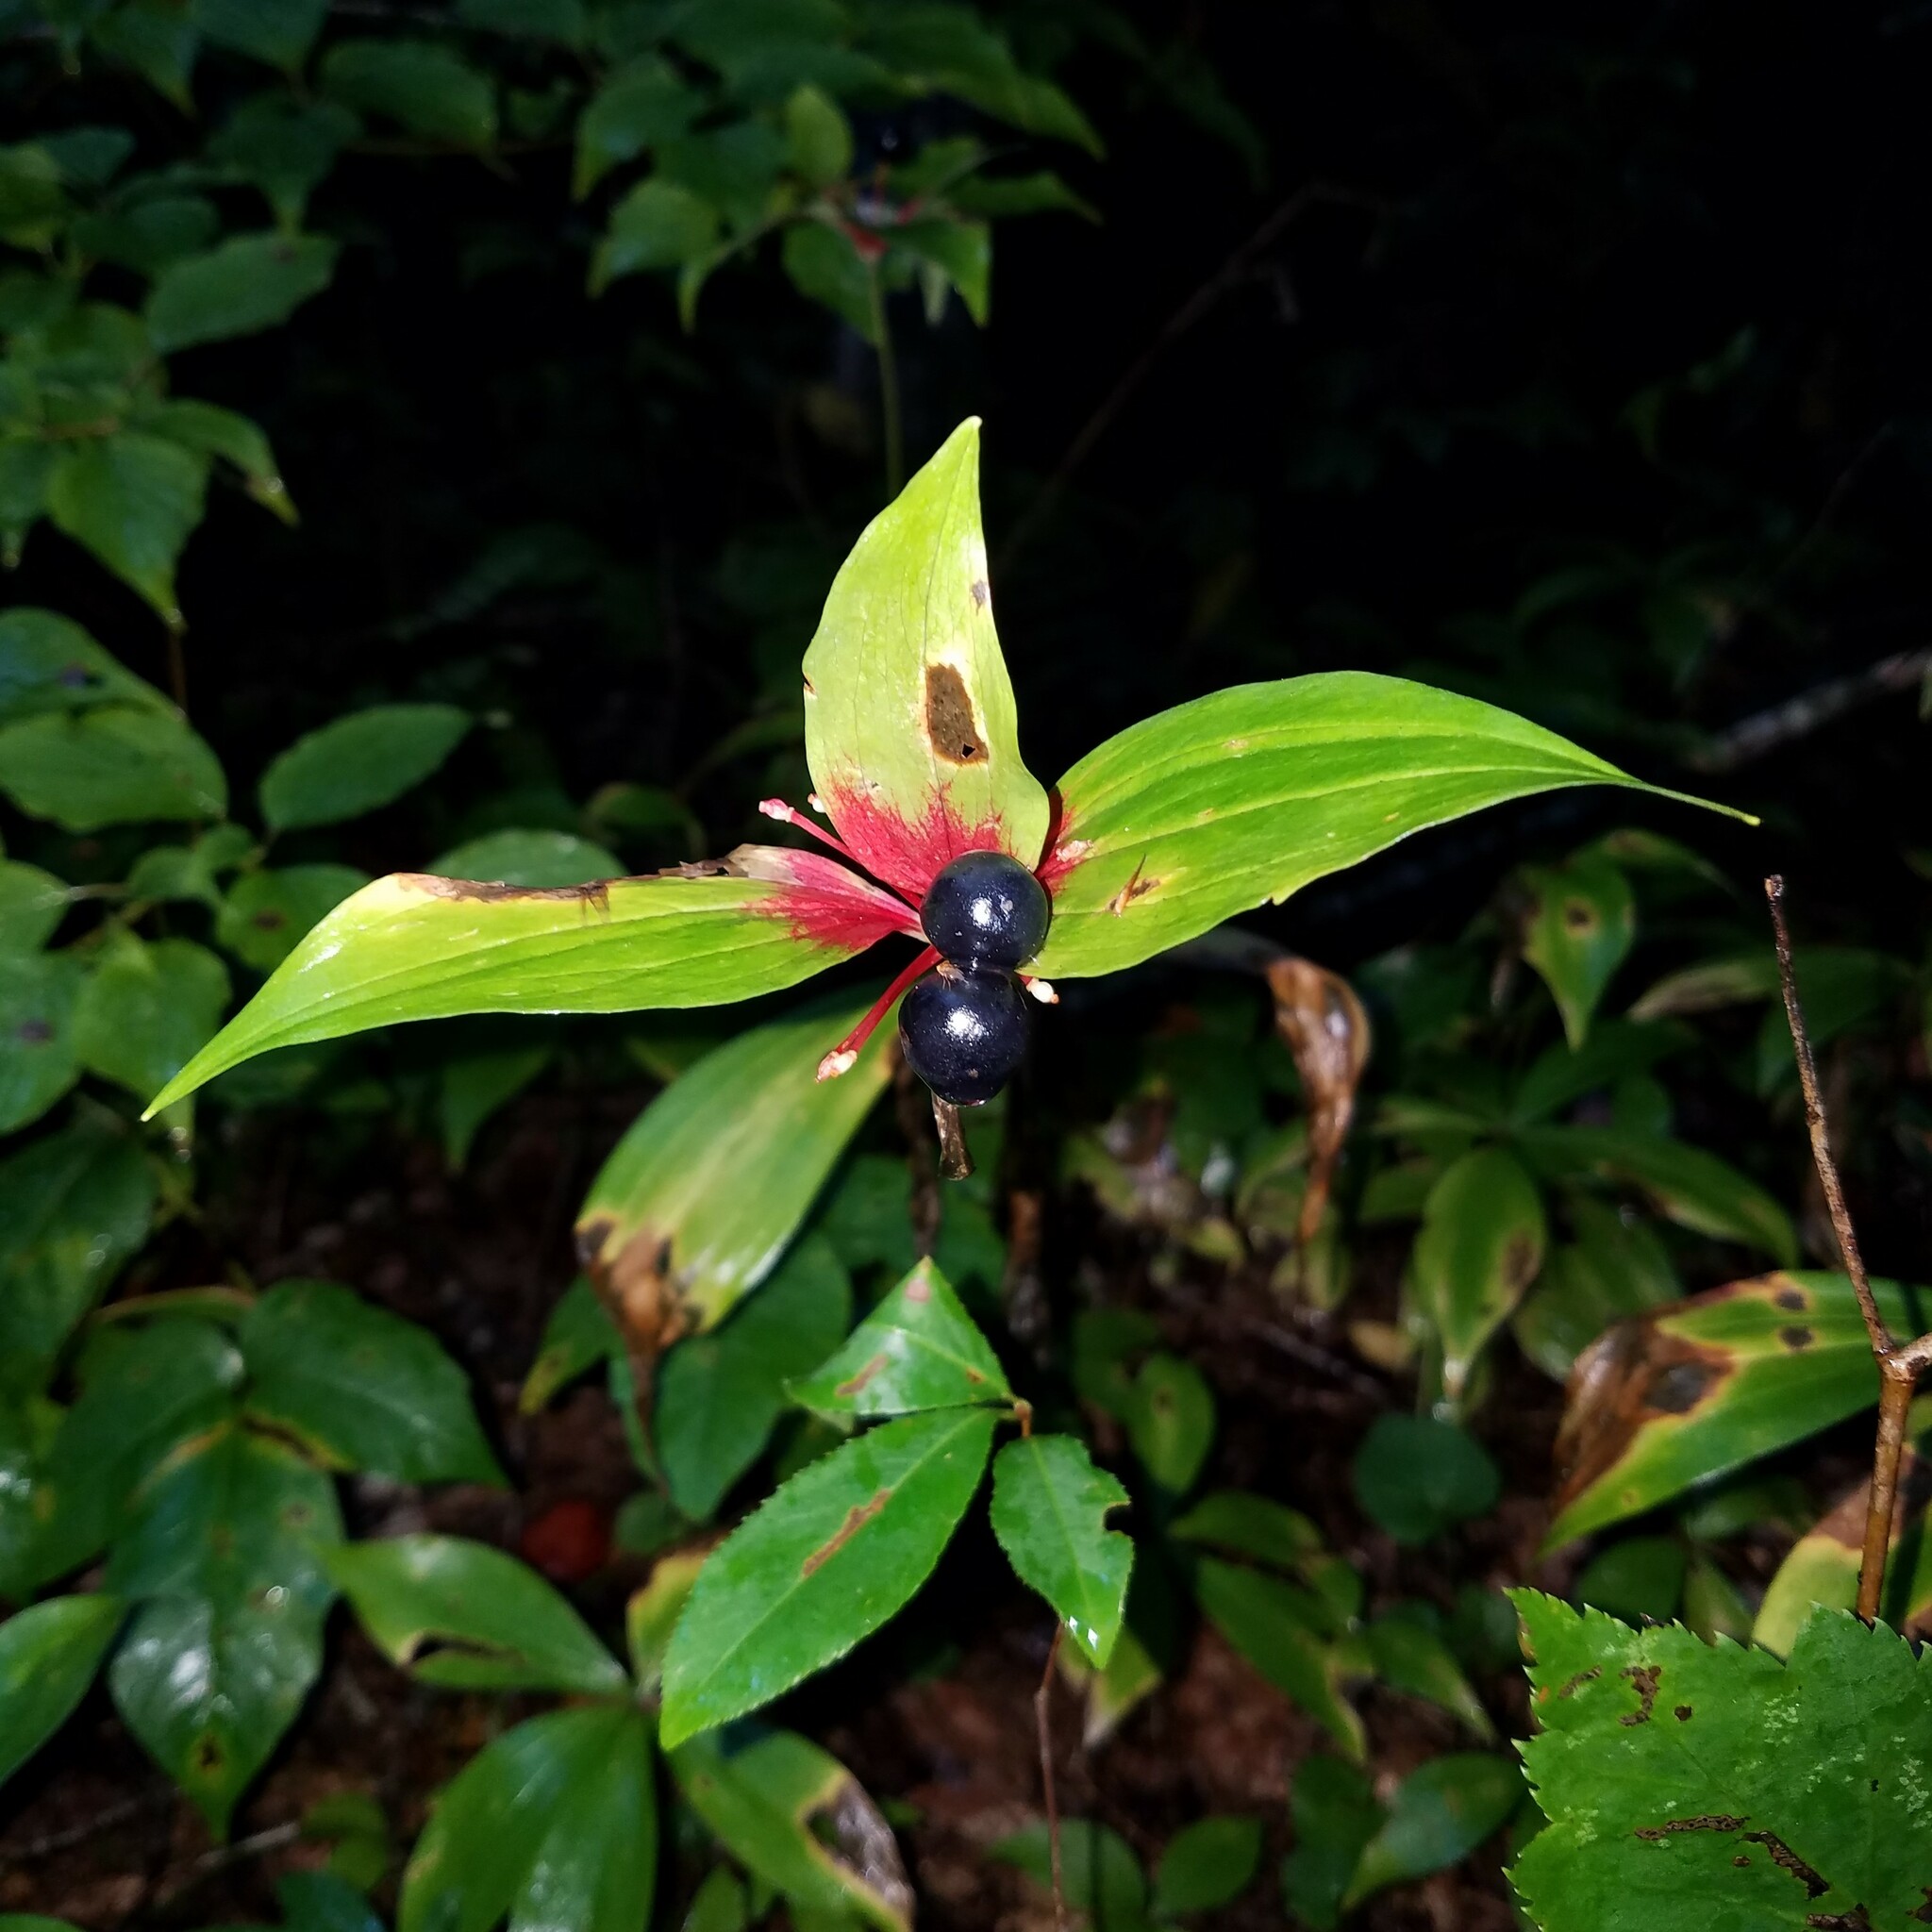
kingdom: Plantae
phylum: Tracheophyta
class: Liliopsida
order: Liliales
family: Liliaceae
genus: Medeola
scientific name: Medeola virginiana
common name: Indian cucumber-root
